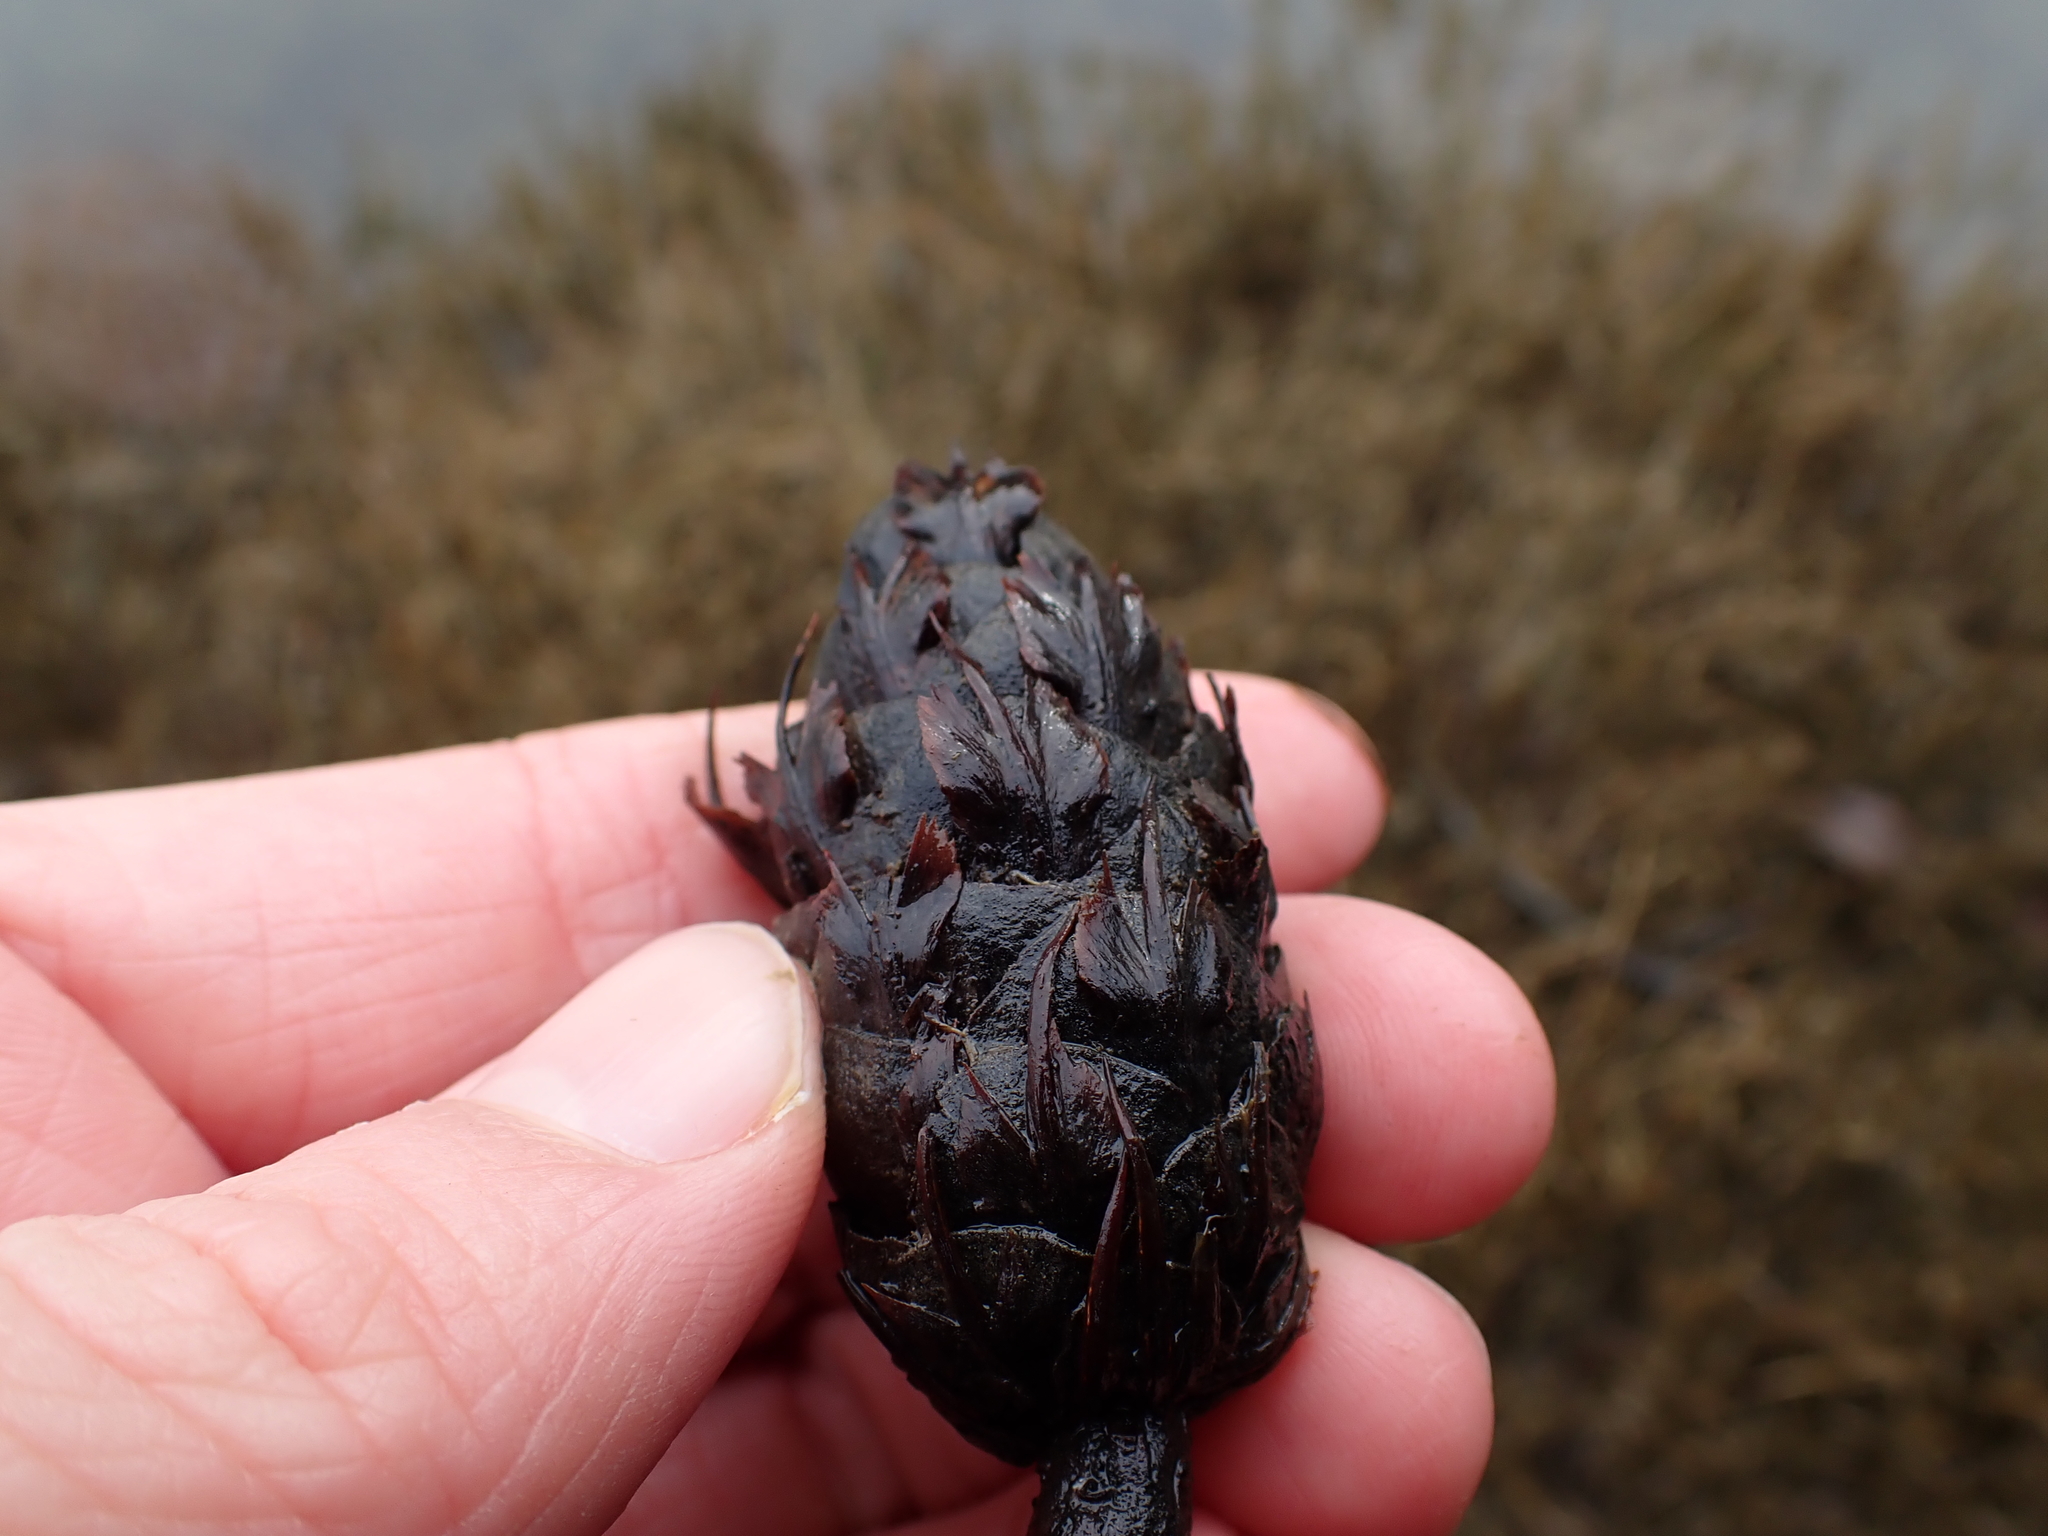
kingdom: Plantae
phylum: Tracheophyta
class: Pinopsida
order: Pinales
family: Pinaceae
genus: Pseudotsuga
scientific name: Pseudotsuga menziesii
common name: Douglas fir
